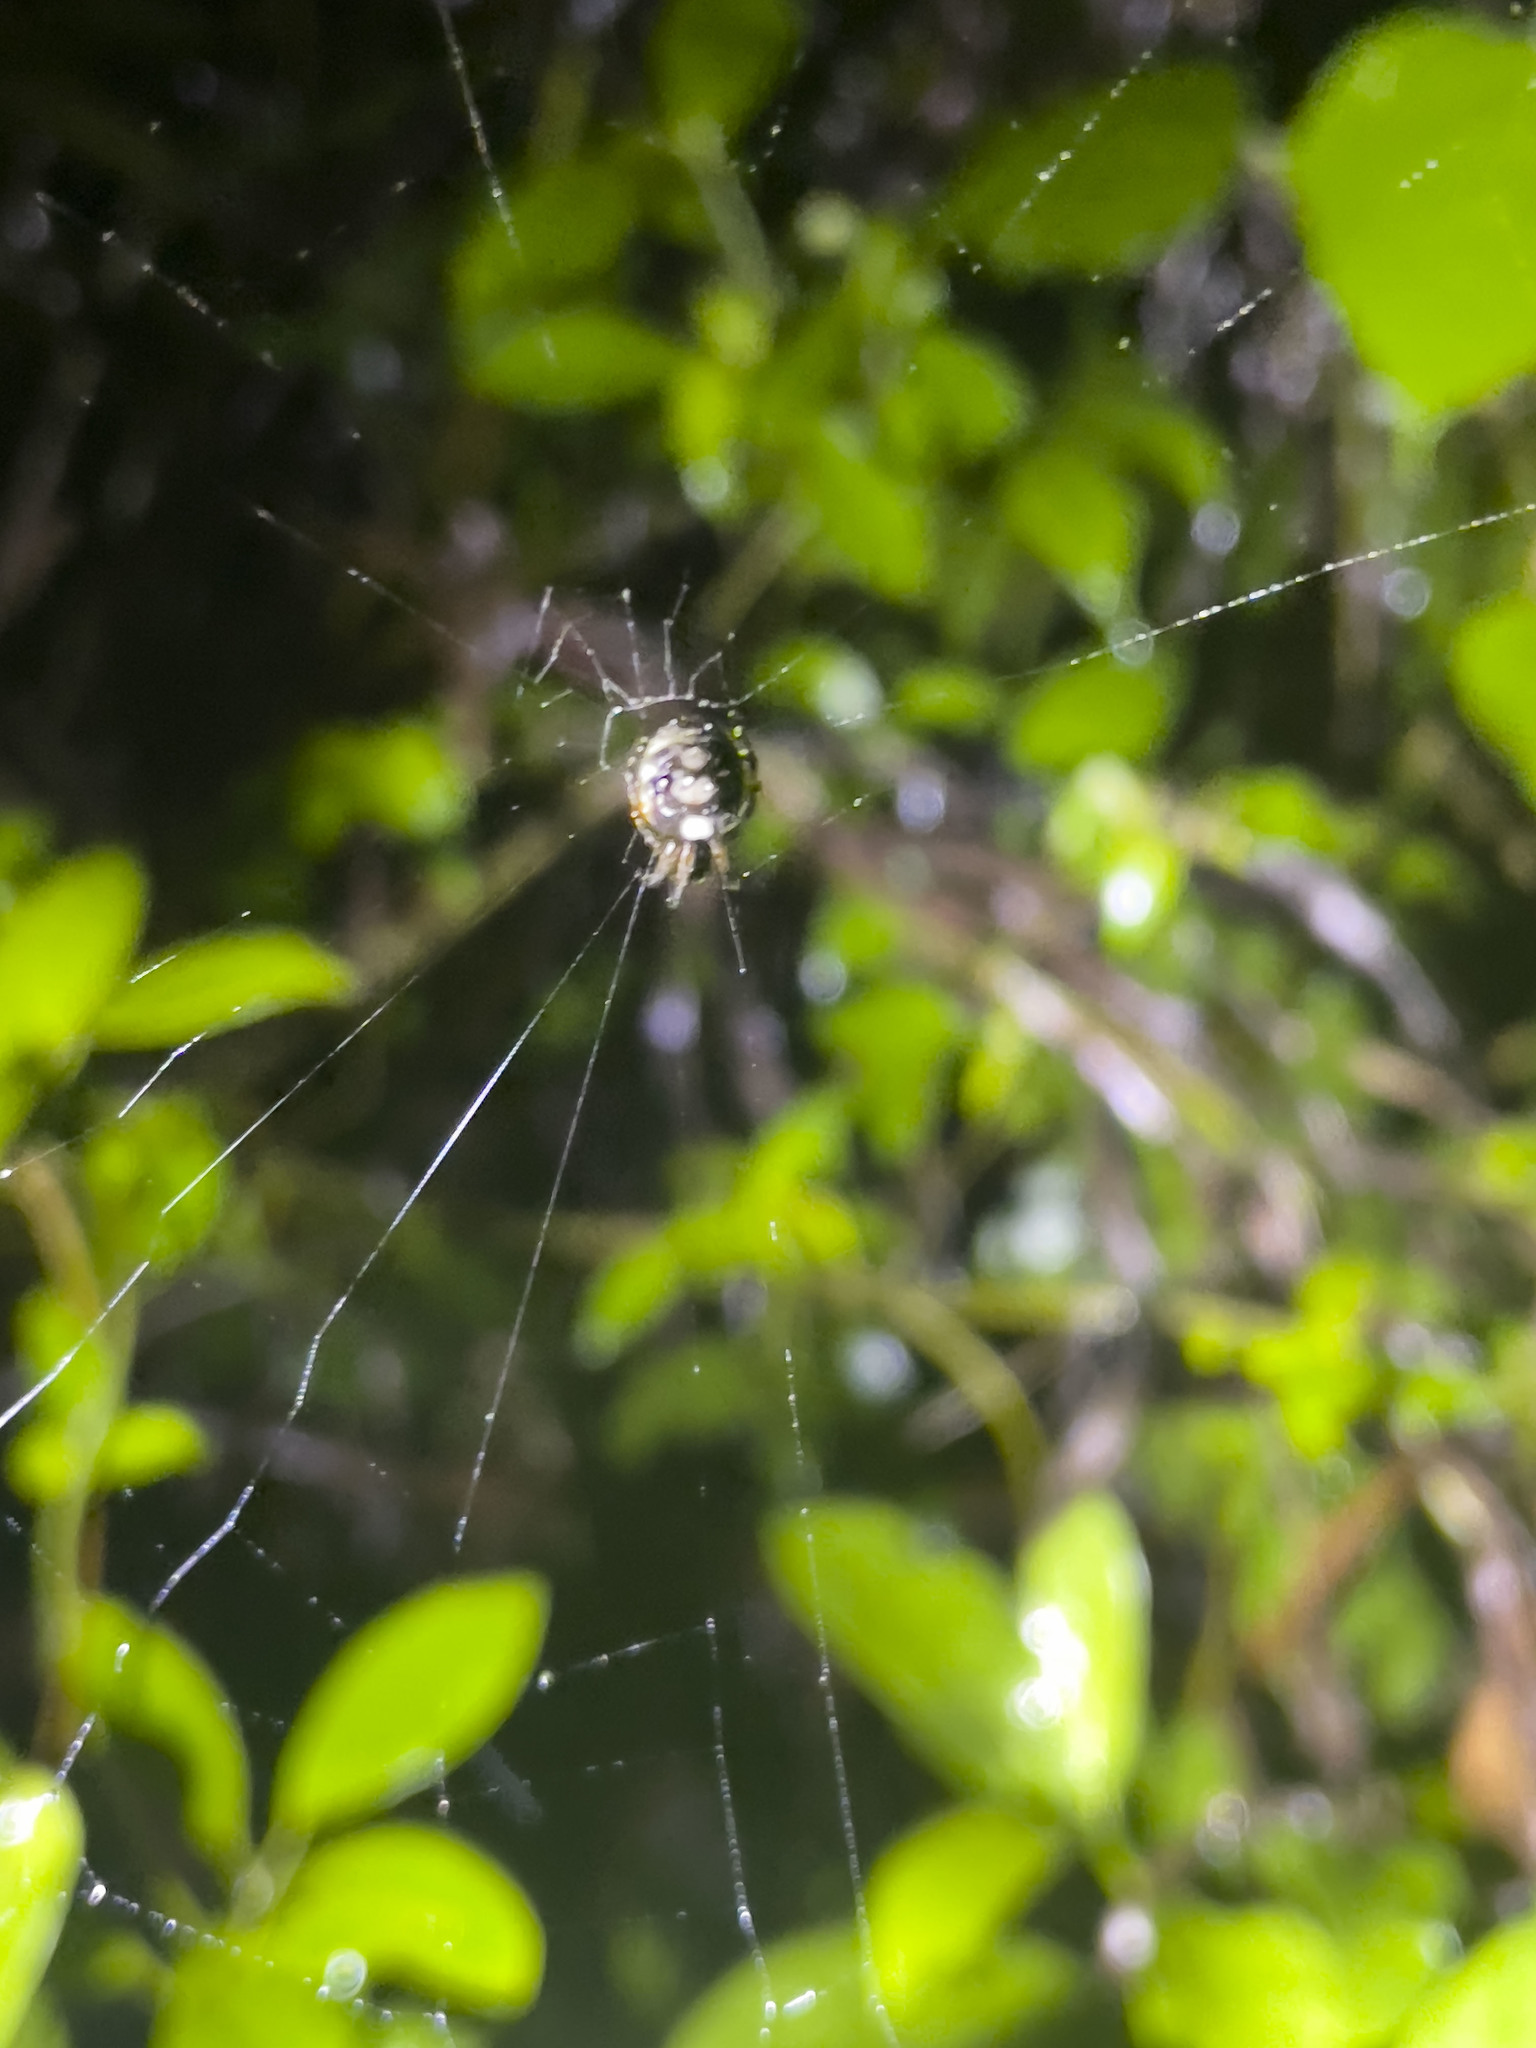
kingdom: Animalia
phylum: Arthropoda
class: Arachnida
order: Araneae
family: Araneidae
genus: Araneus
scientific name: Araneus ejusmodi
